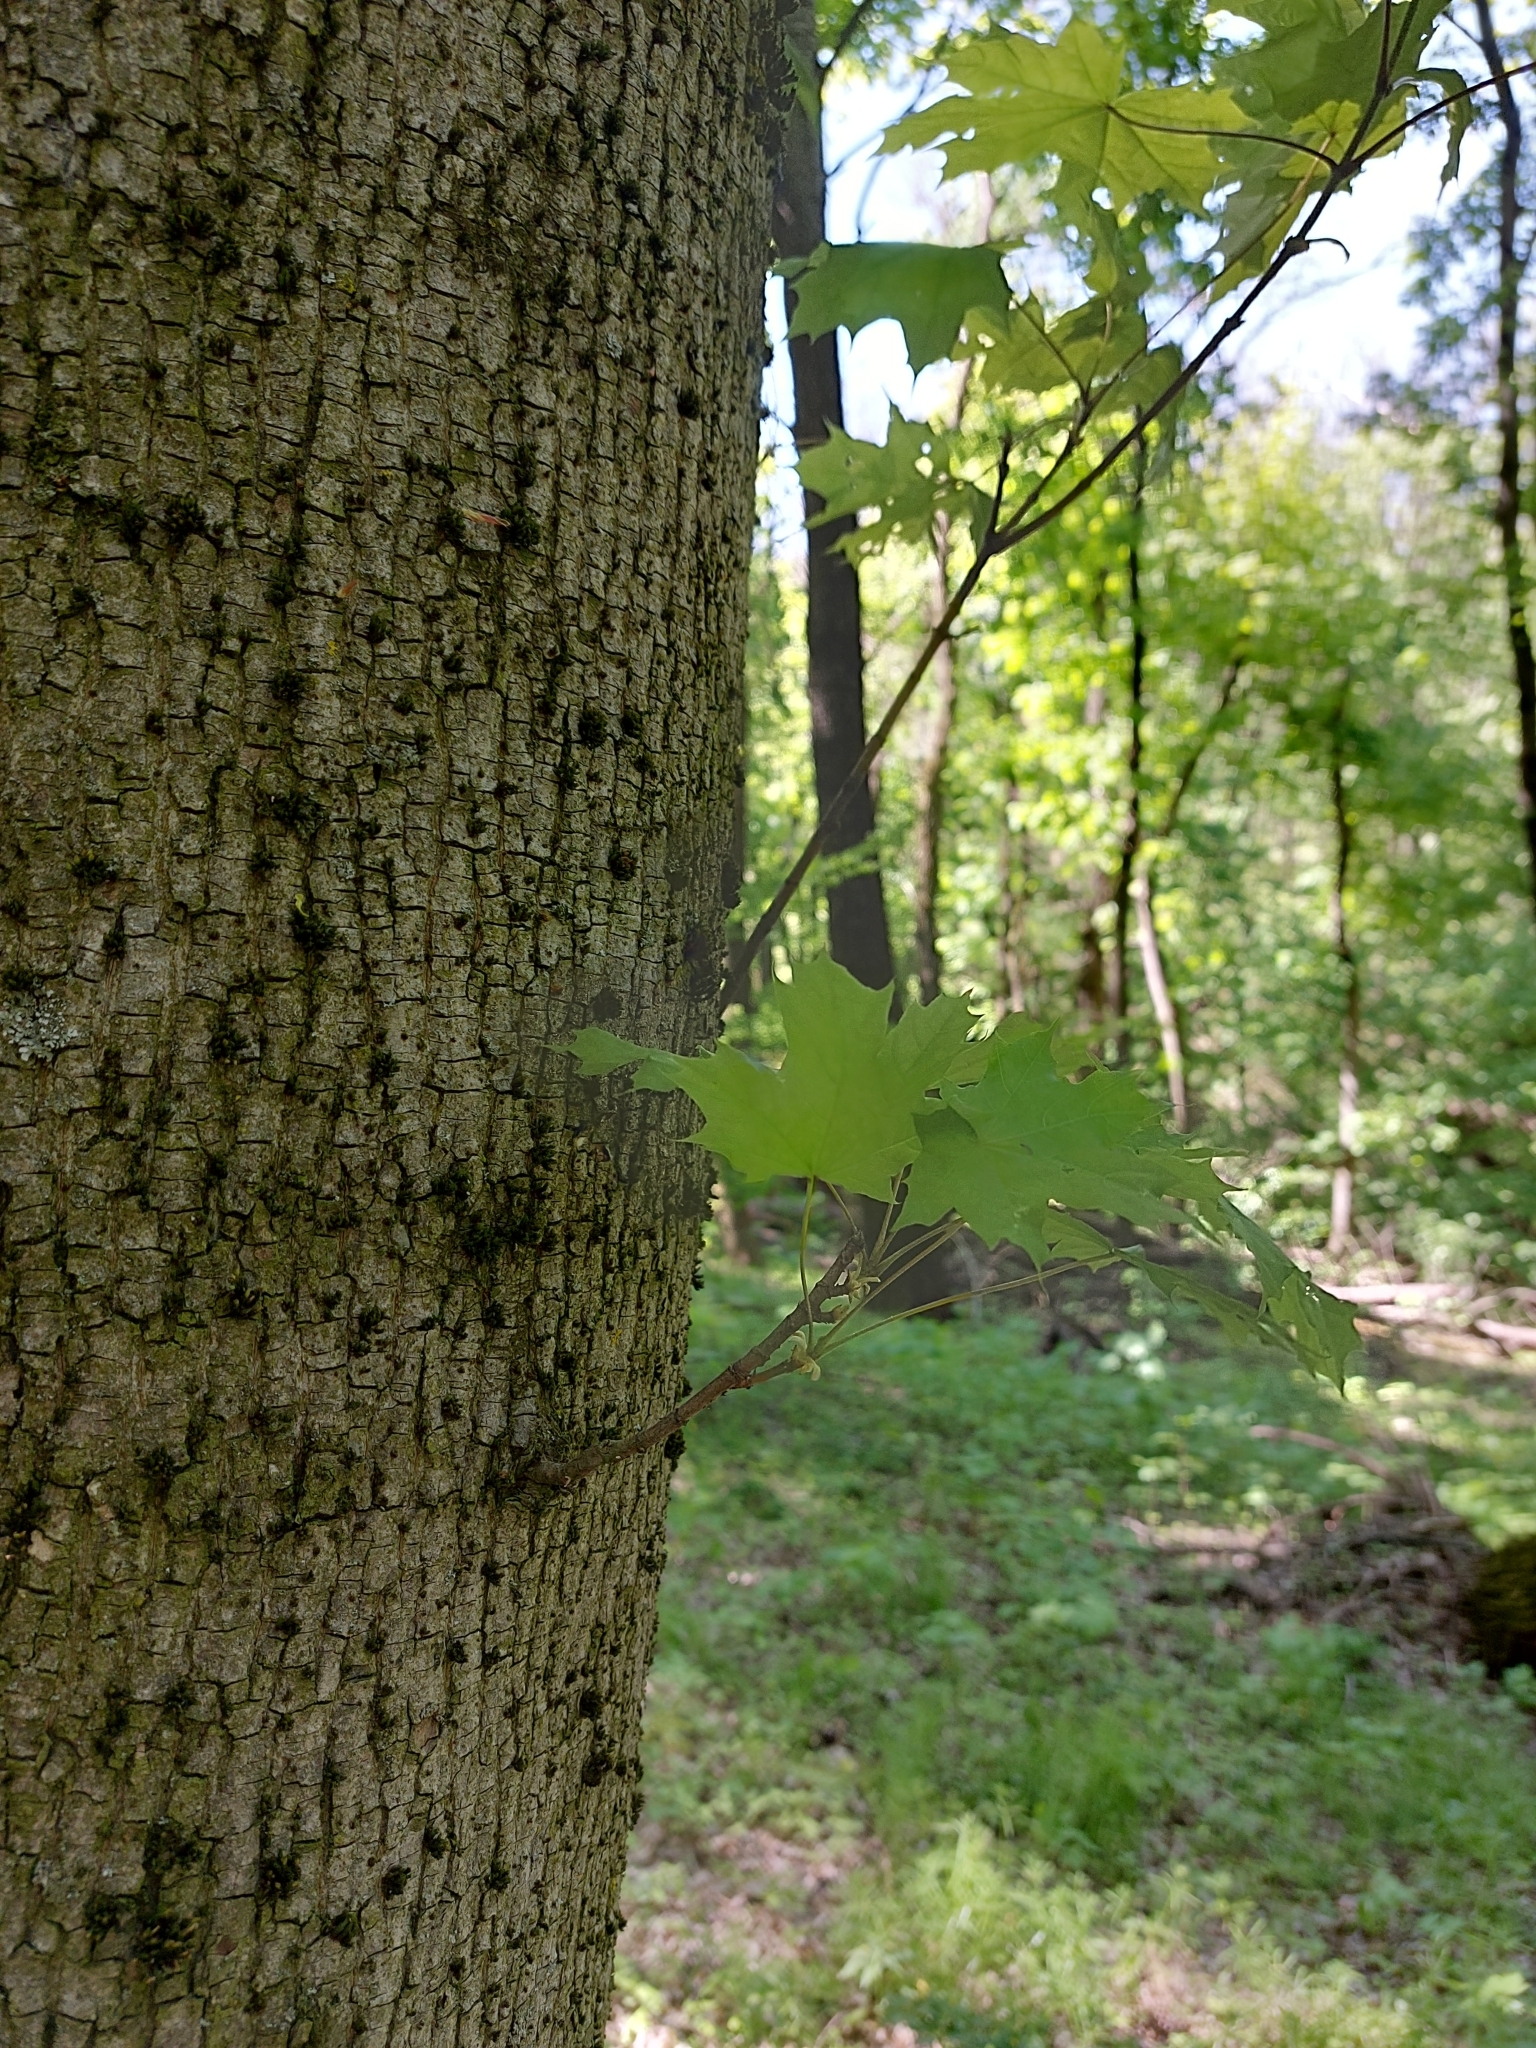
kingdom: Plantae
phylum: Tracheophyta
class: Magnoliopsida
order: Sapindales
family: Sapindaceae
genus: Acer
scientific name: Acer platanoides
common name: Norway maple
